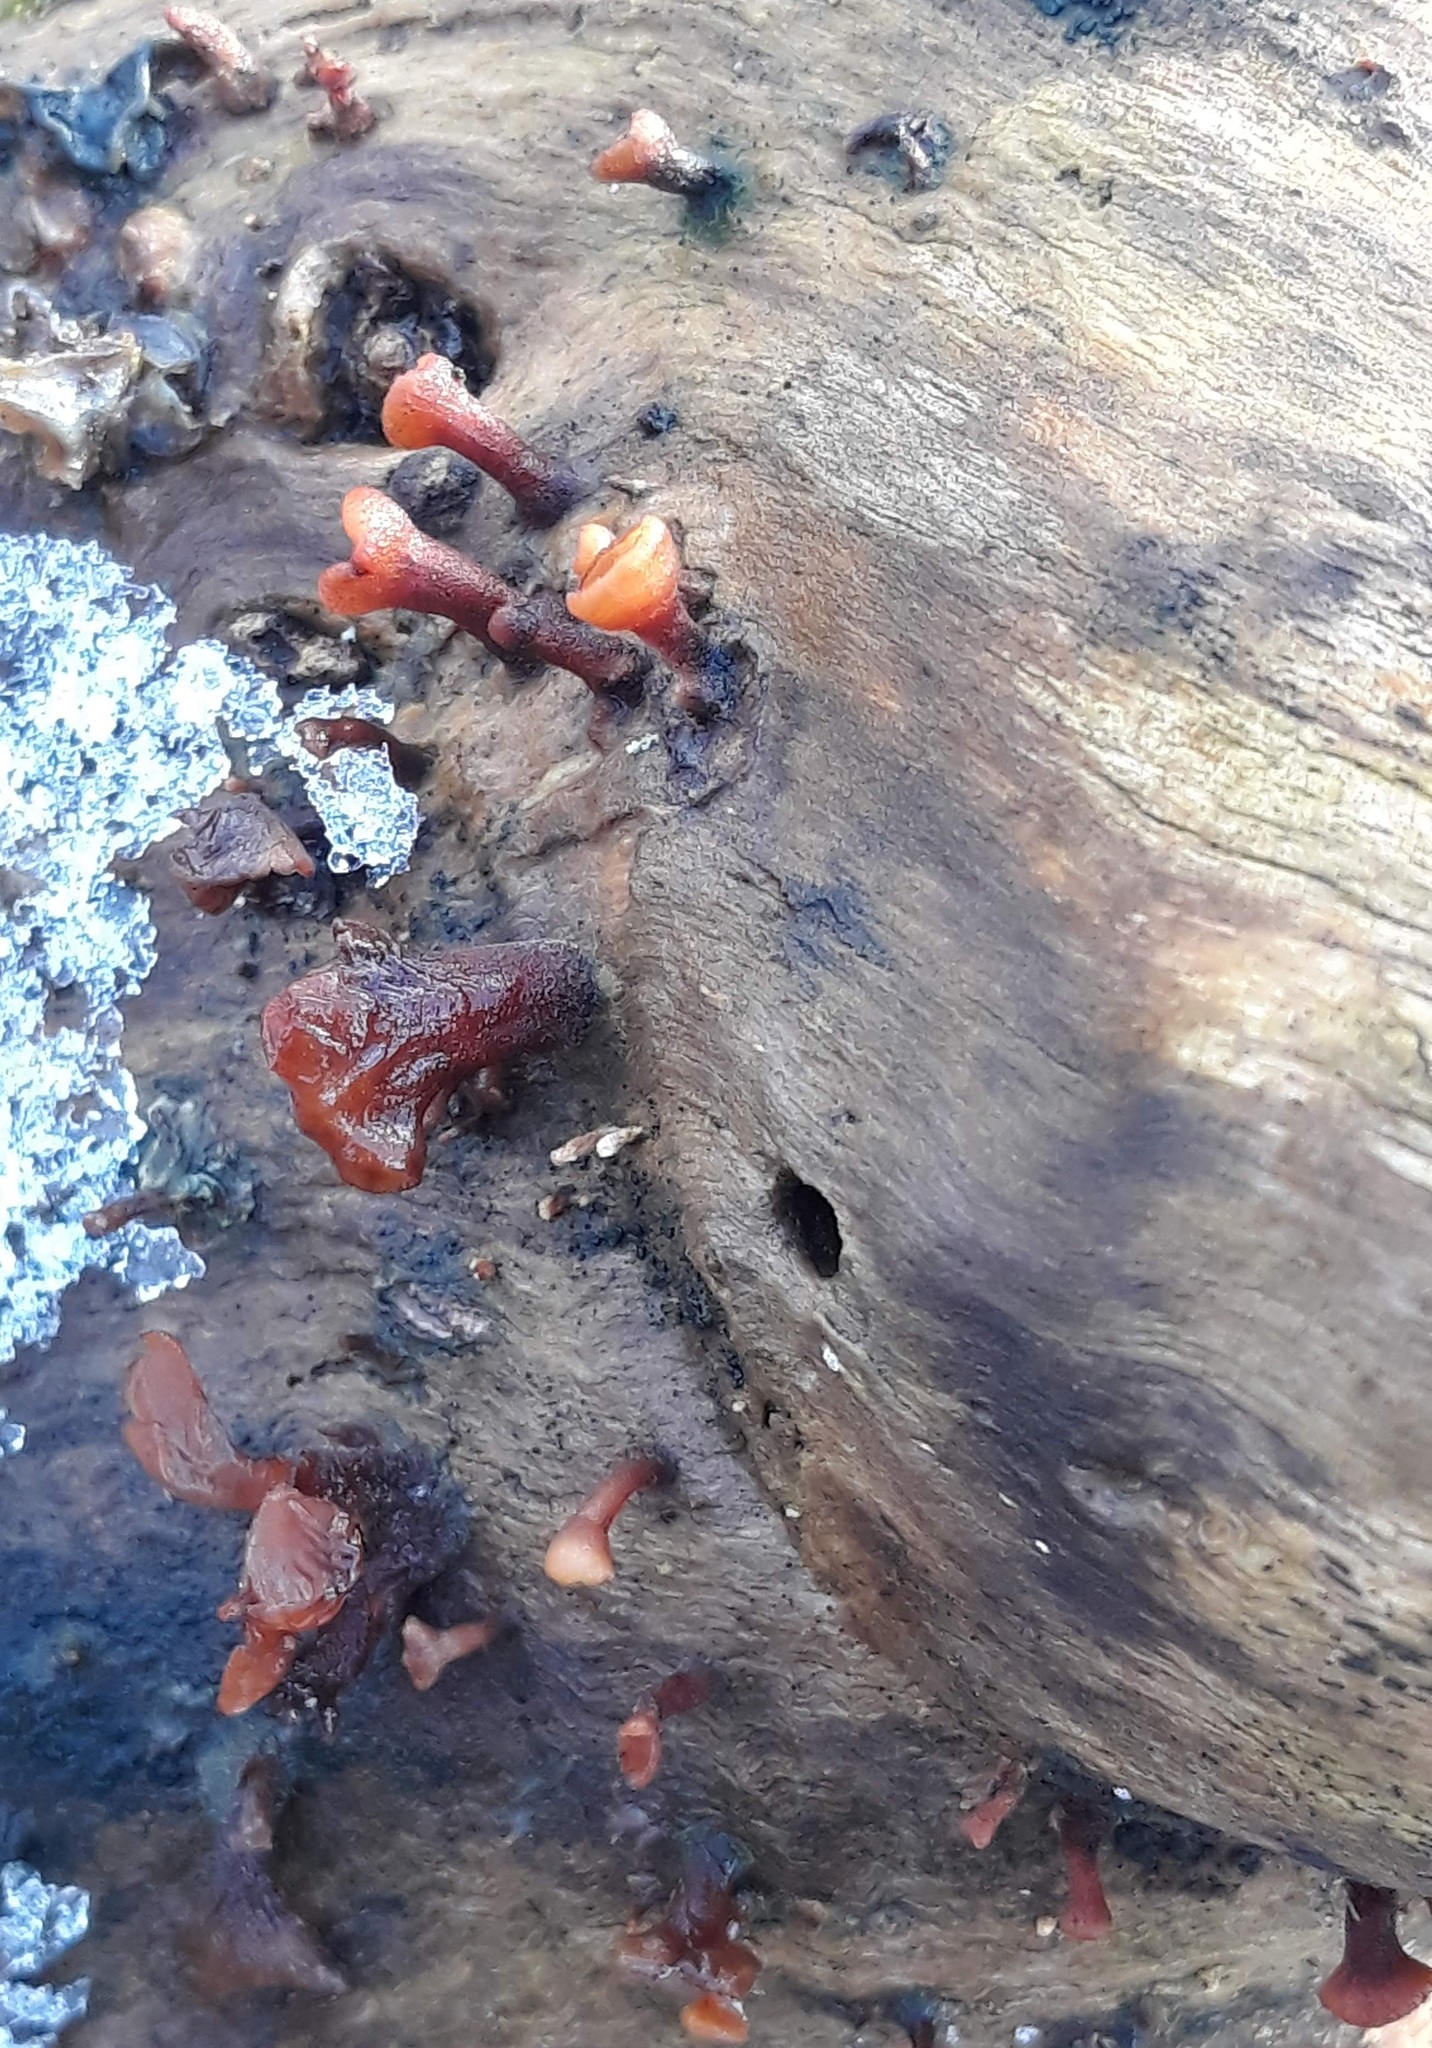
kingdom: Fungi
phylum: Basidiomycota
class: Dacrymycetes
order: Dacrymycetales
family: Dacrymycetaceae
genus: Dacryopinax
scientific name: Dacryopinax elegans
